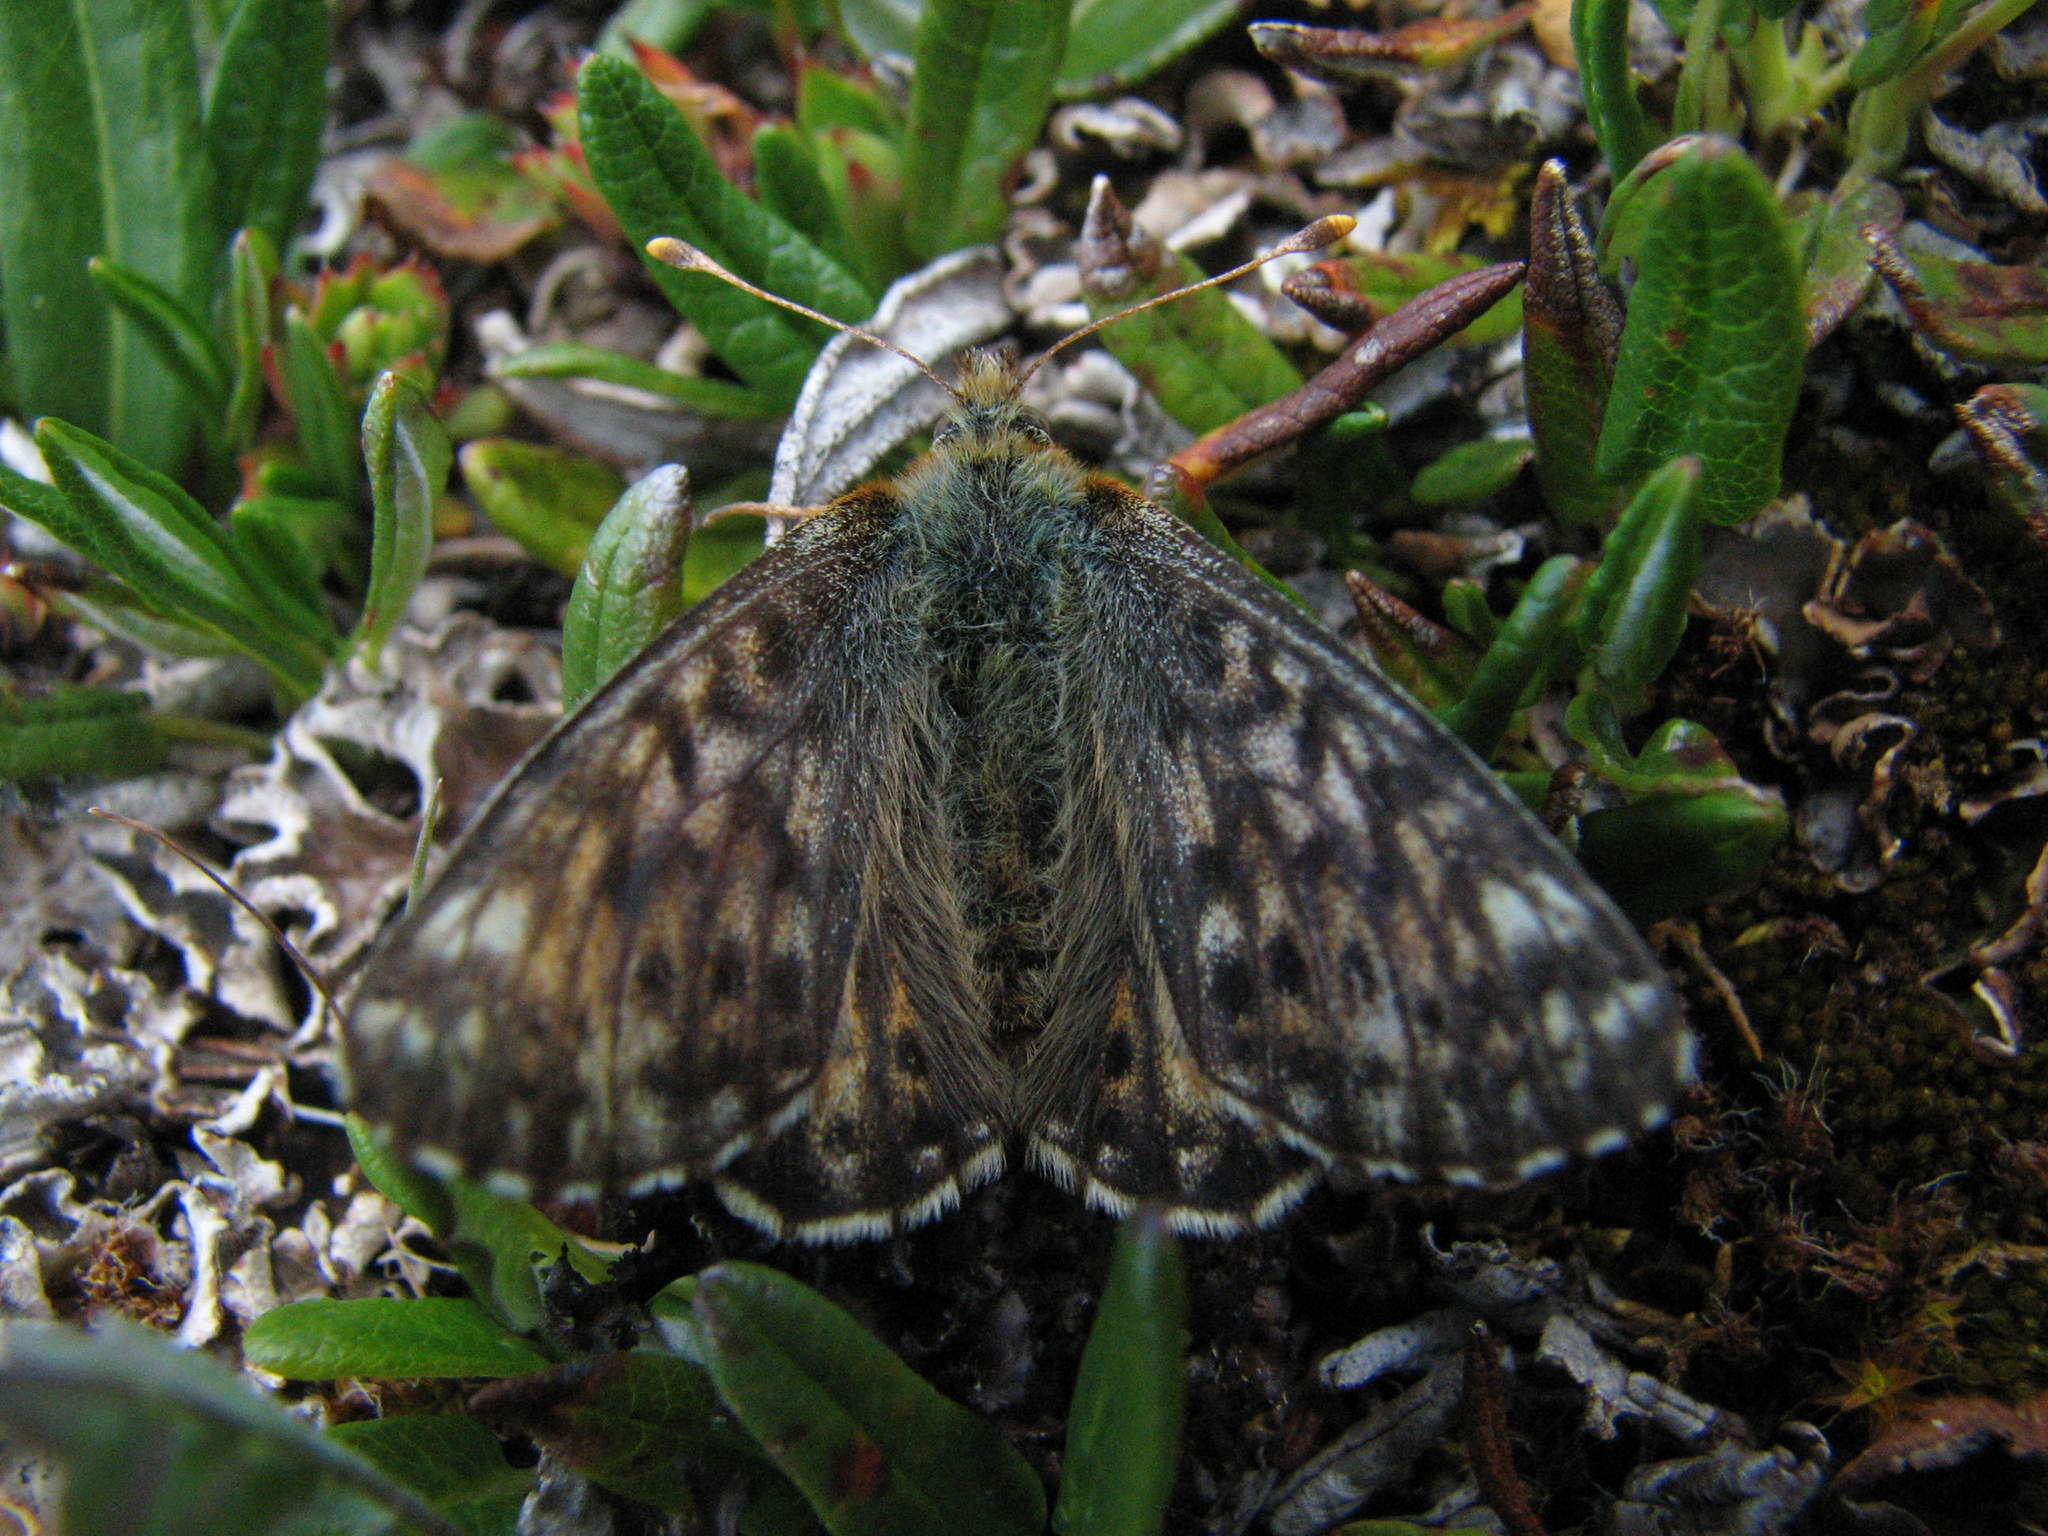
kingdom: Animalia
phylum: Arthropoda
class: Insecta
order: Lepidoptera
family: Nymphalidae
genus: Boloria
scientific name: Boloria alaskensis
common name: Alaskan fritillary
